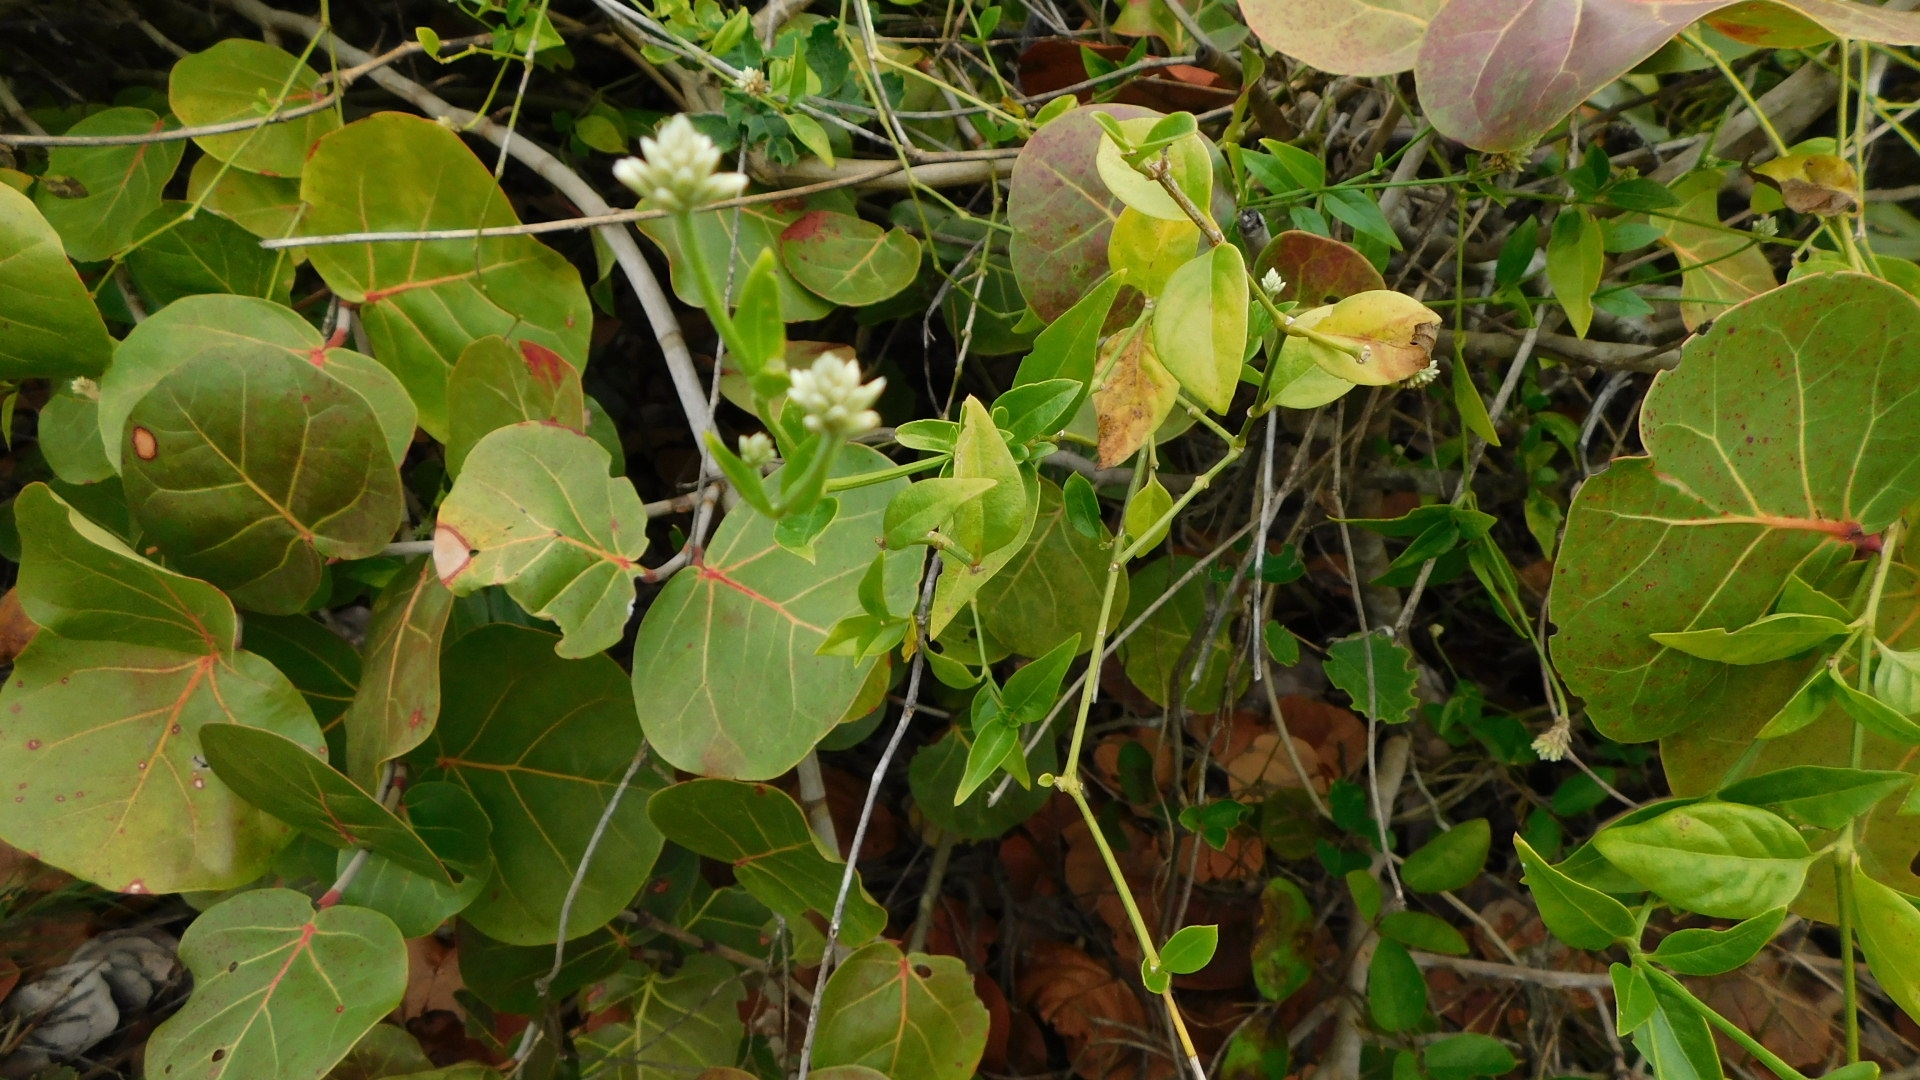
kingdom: Plantae
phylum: Tracheophyta
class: Magnoliopsida
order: Caryophyllales
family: Amaranthaceae
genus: Alternanthera
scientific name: Alternanthera flavescens
